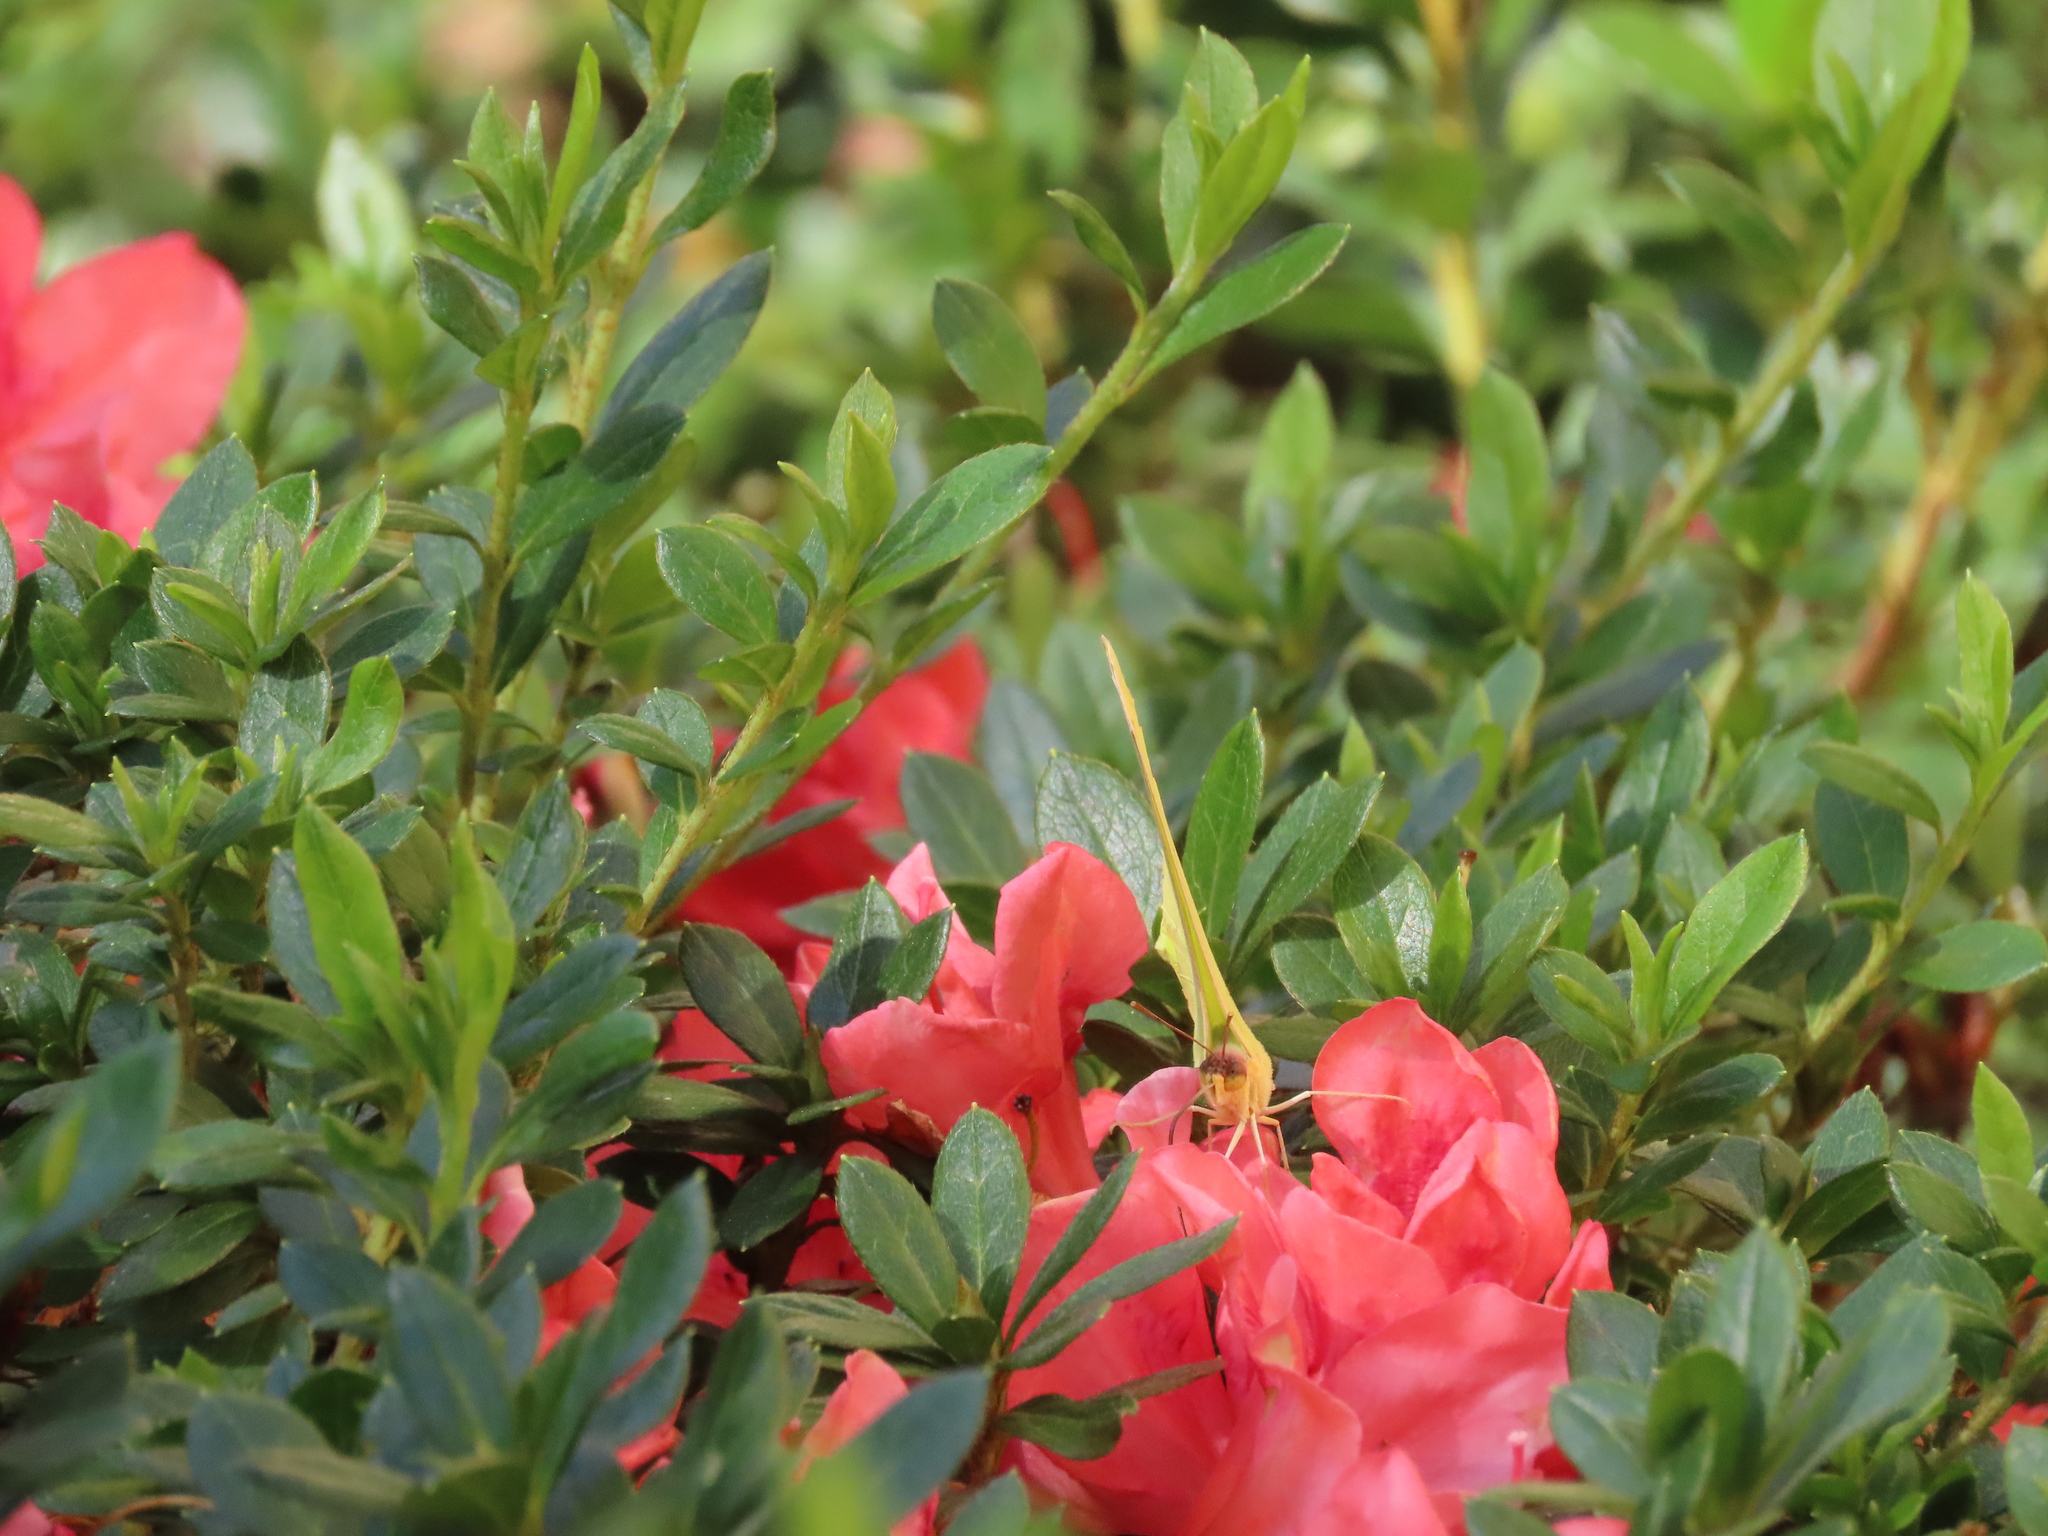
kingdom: Animalia
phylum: Arthropoda
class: Insecta
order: Lepidoptera
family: Pieridae
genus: Phoebis
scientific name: Phoebis sennae
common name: Cloudless sulphur
